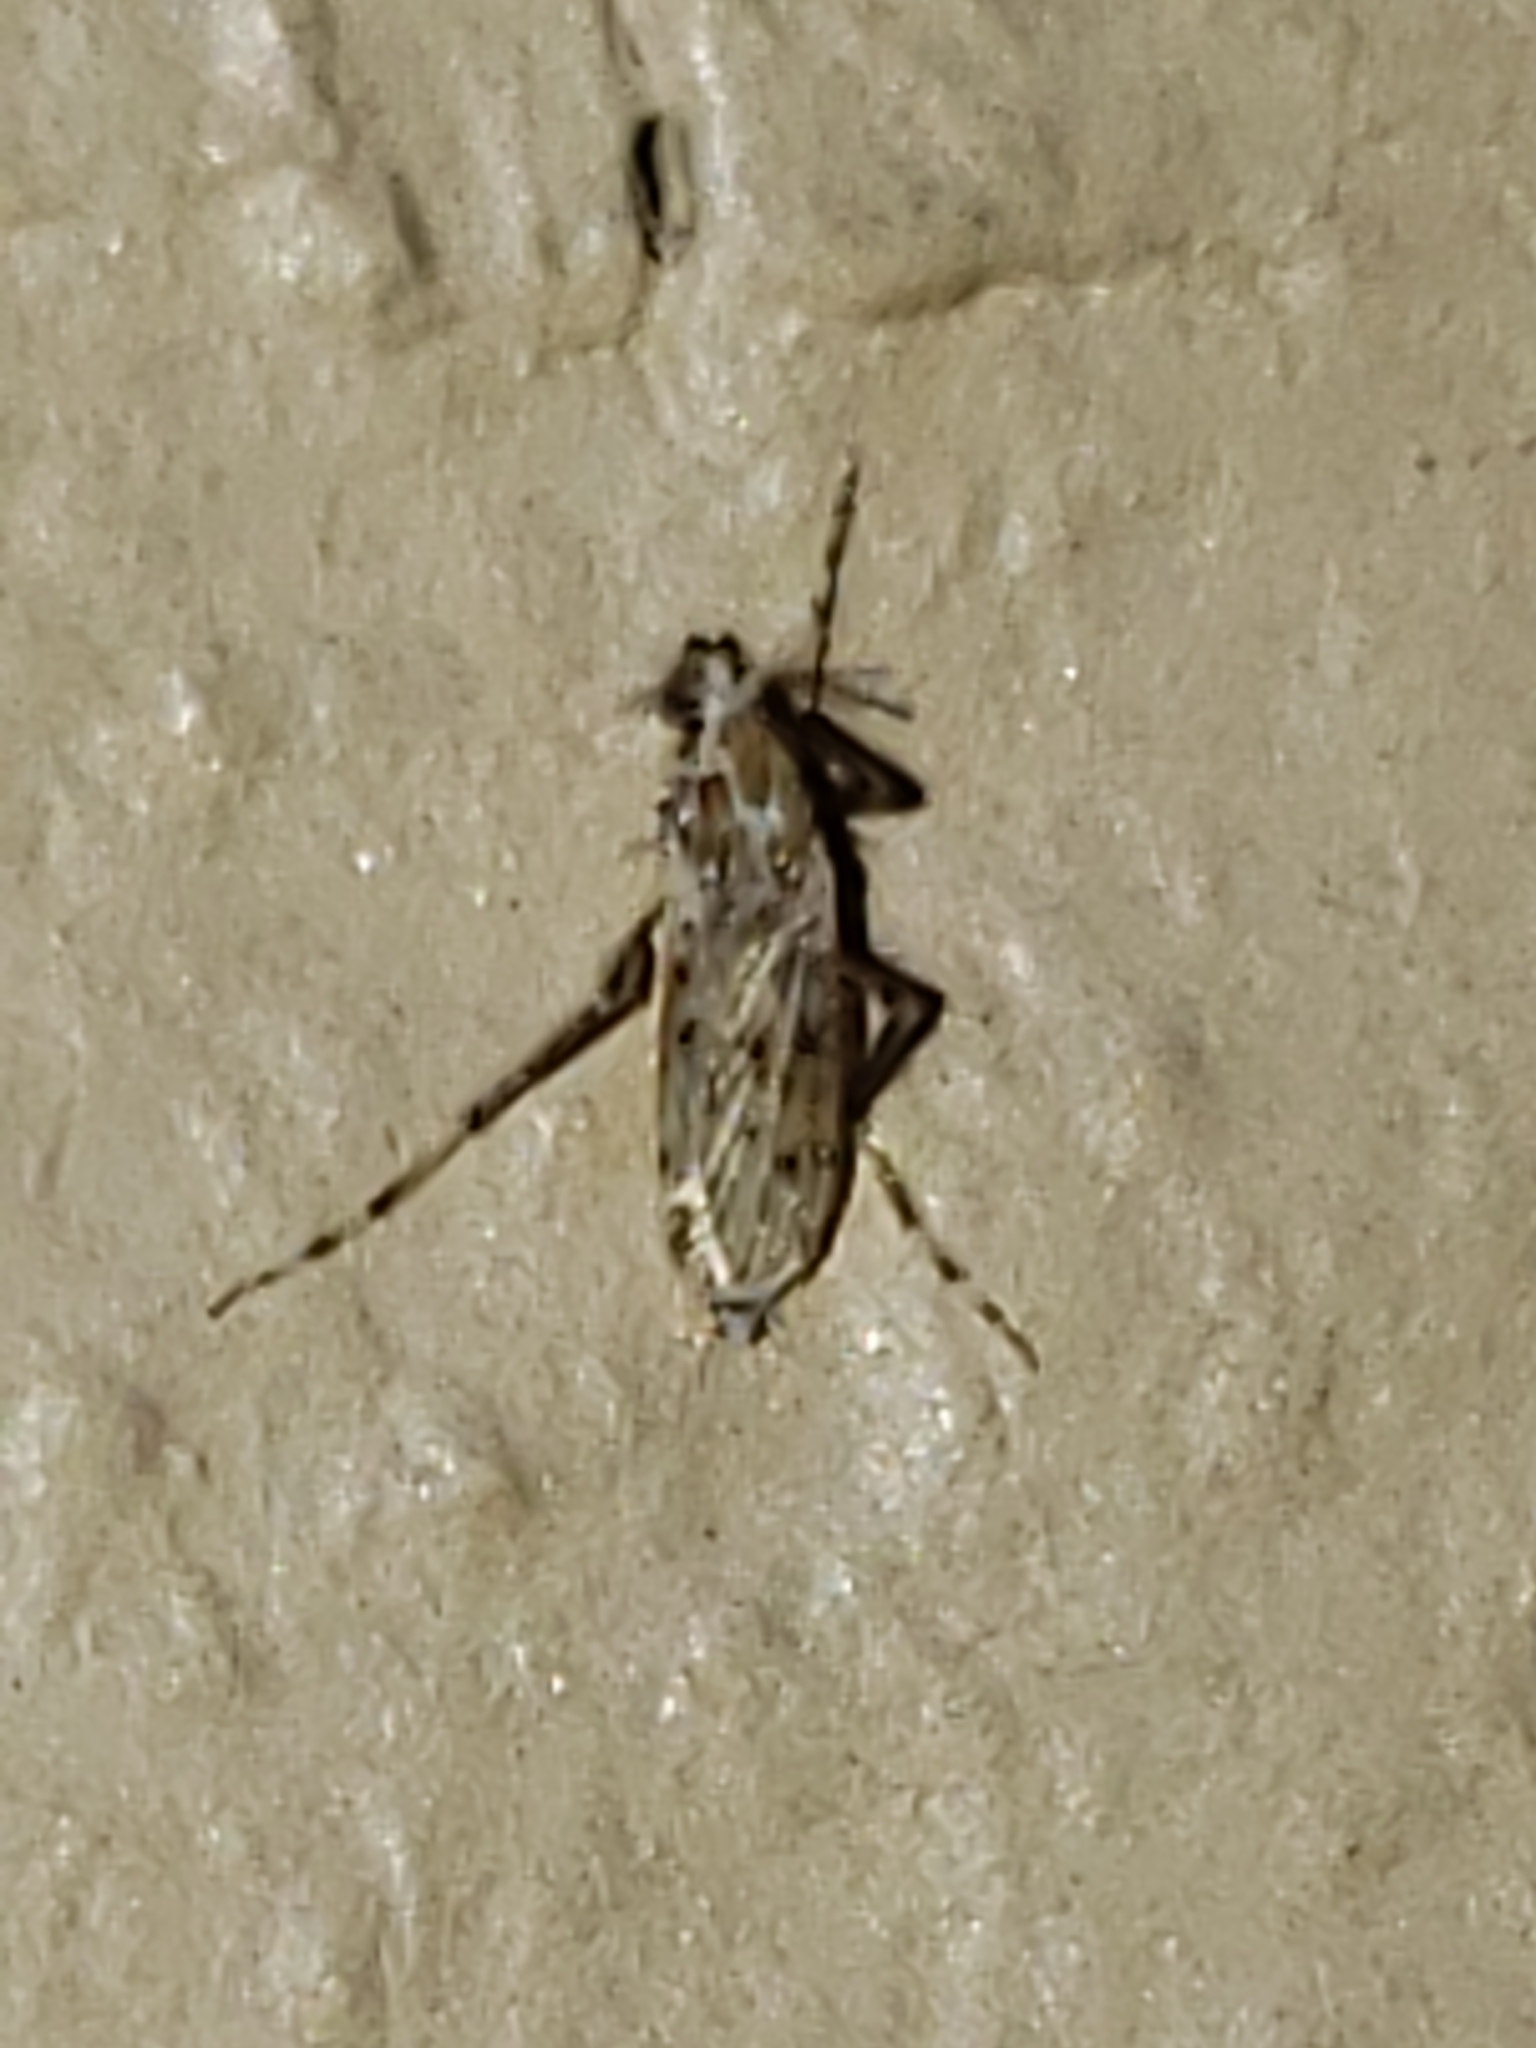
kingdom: Animalia
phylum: Arthropoda
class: Insecta
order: Diptera
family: Chaoboridae
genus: Chaoborus
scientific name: Chaoborus punctipennis
